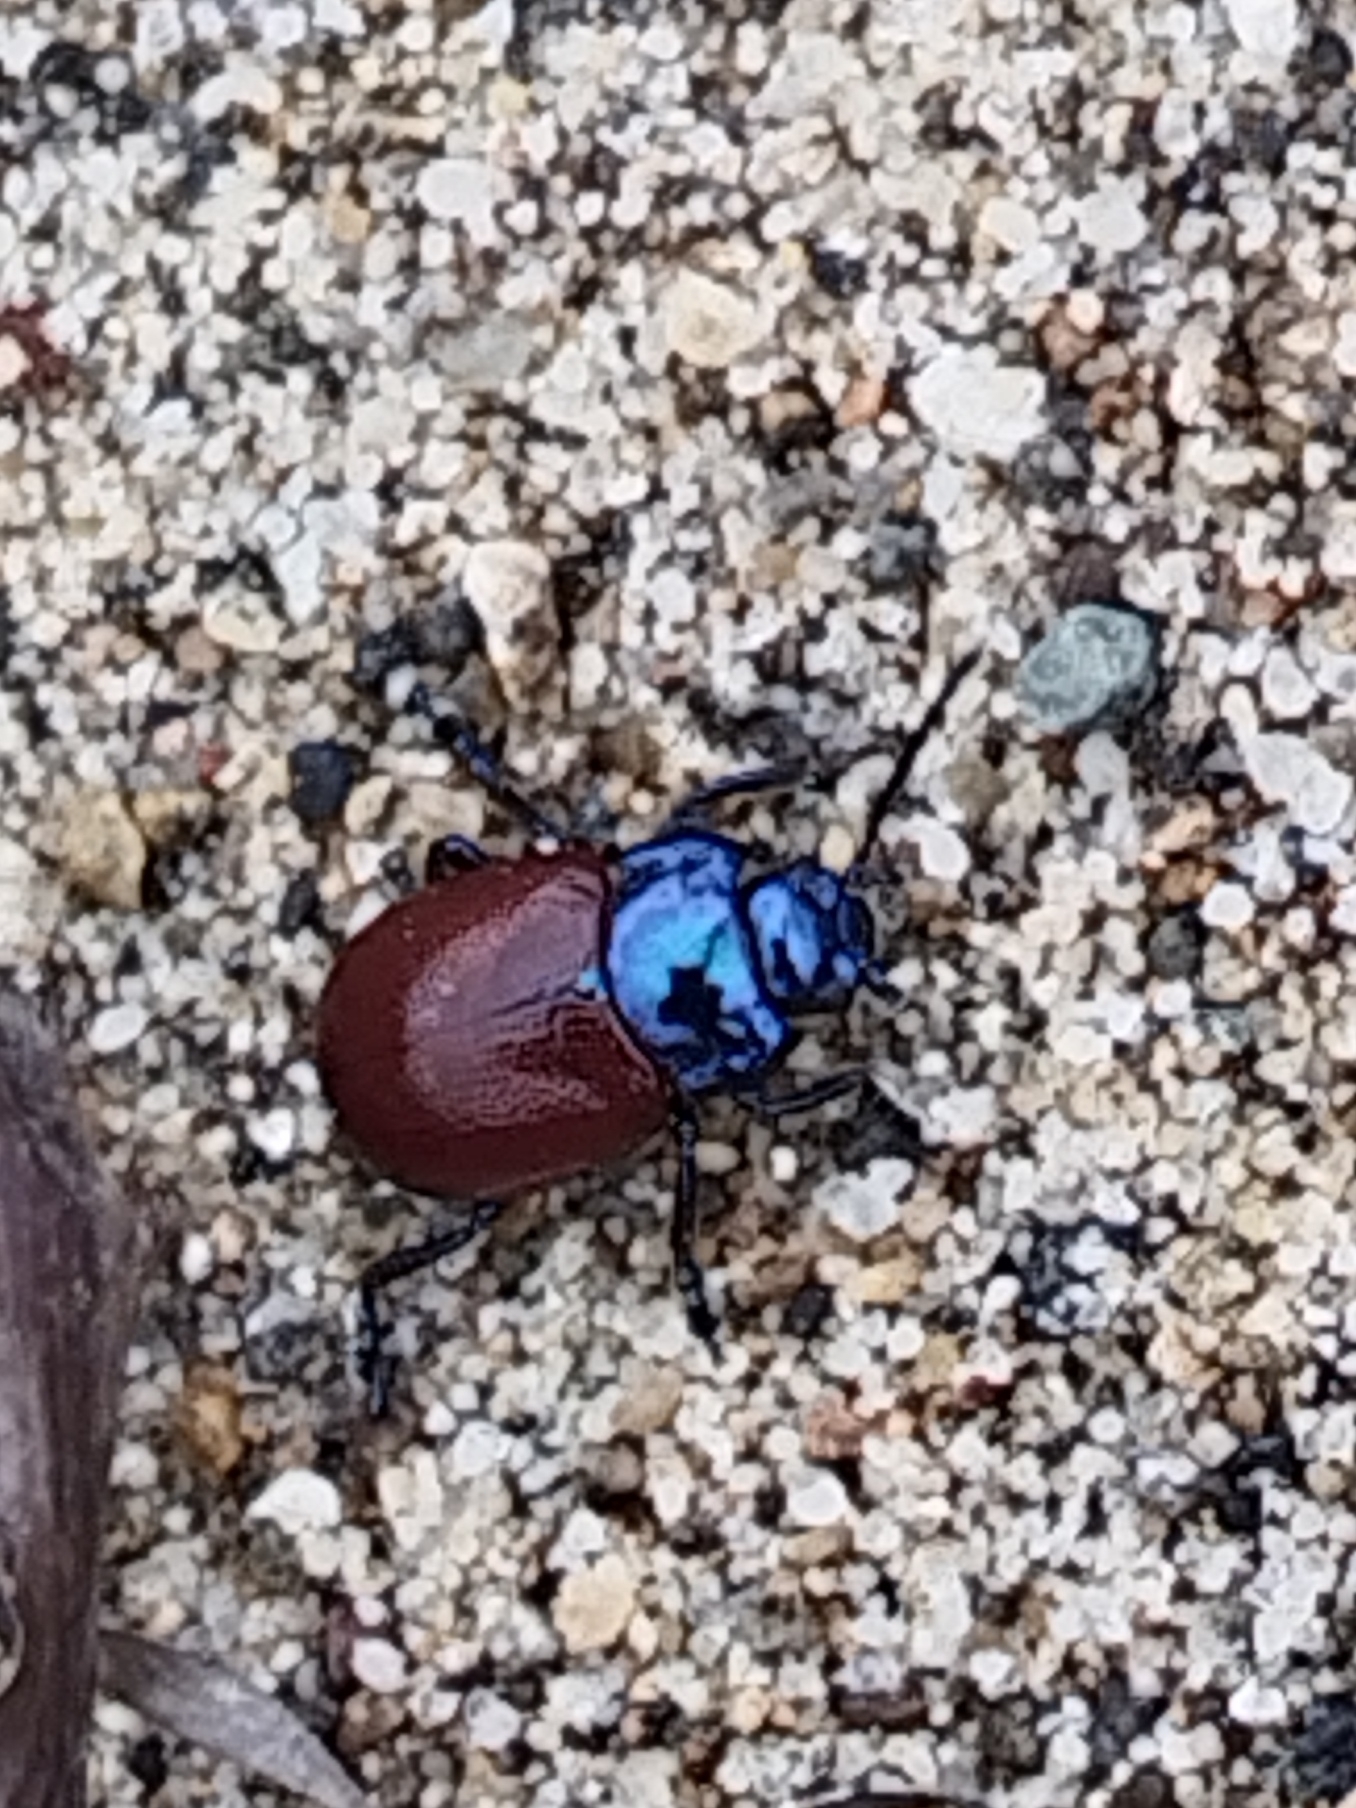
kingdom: Animalia
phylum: Arthropoda
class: Insecta
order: Coleoptera
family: Chrysomelidae
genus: Chrysomela
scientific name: Chrysomela populi
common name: Red poplar leaf beetle
